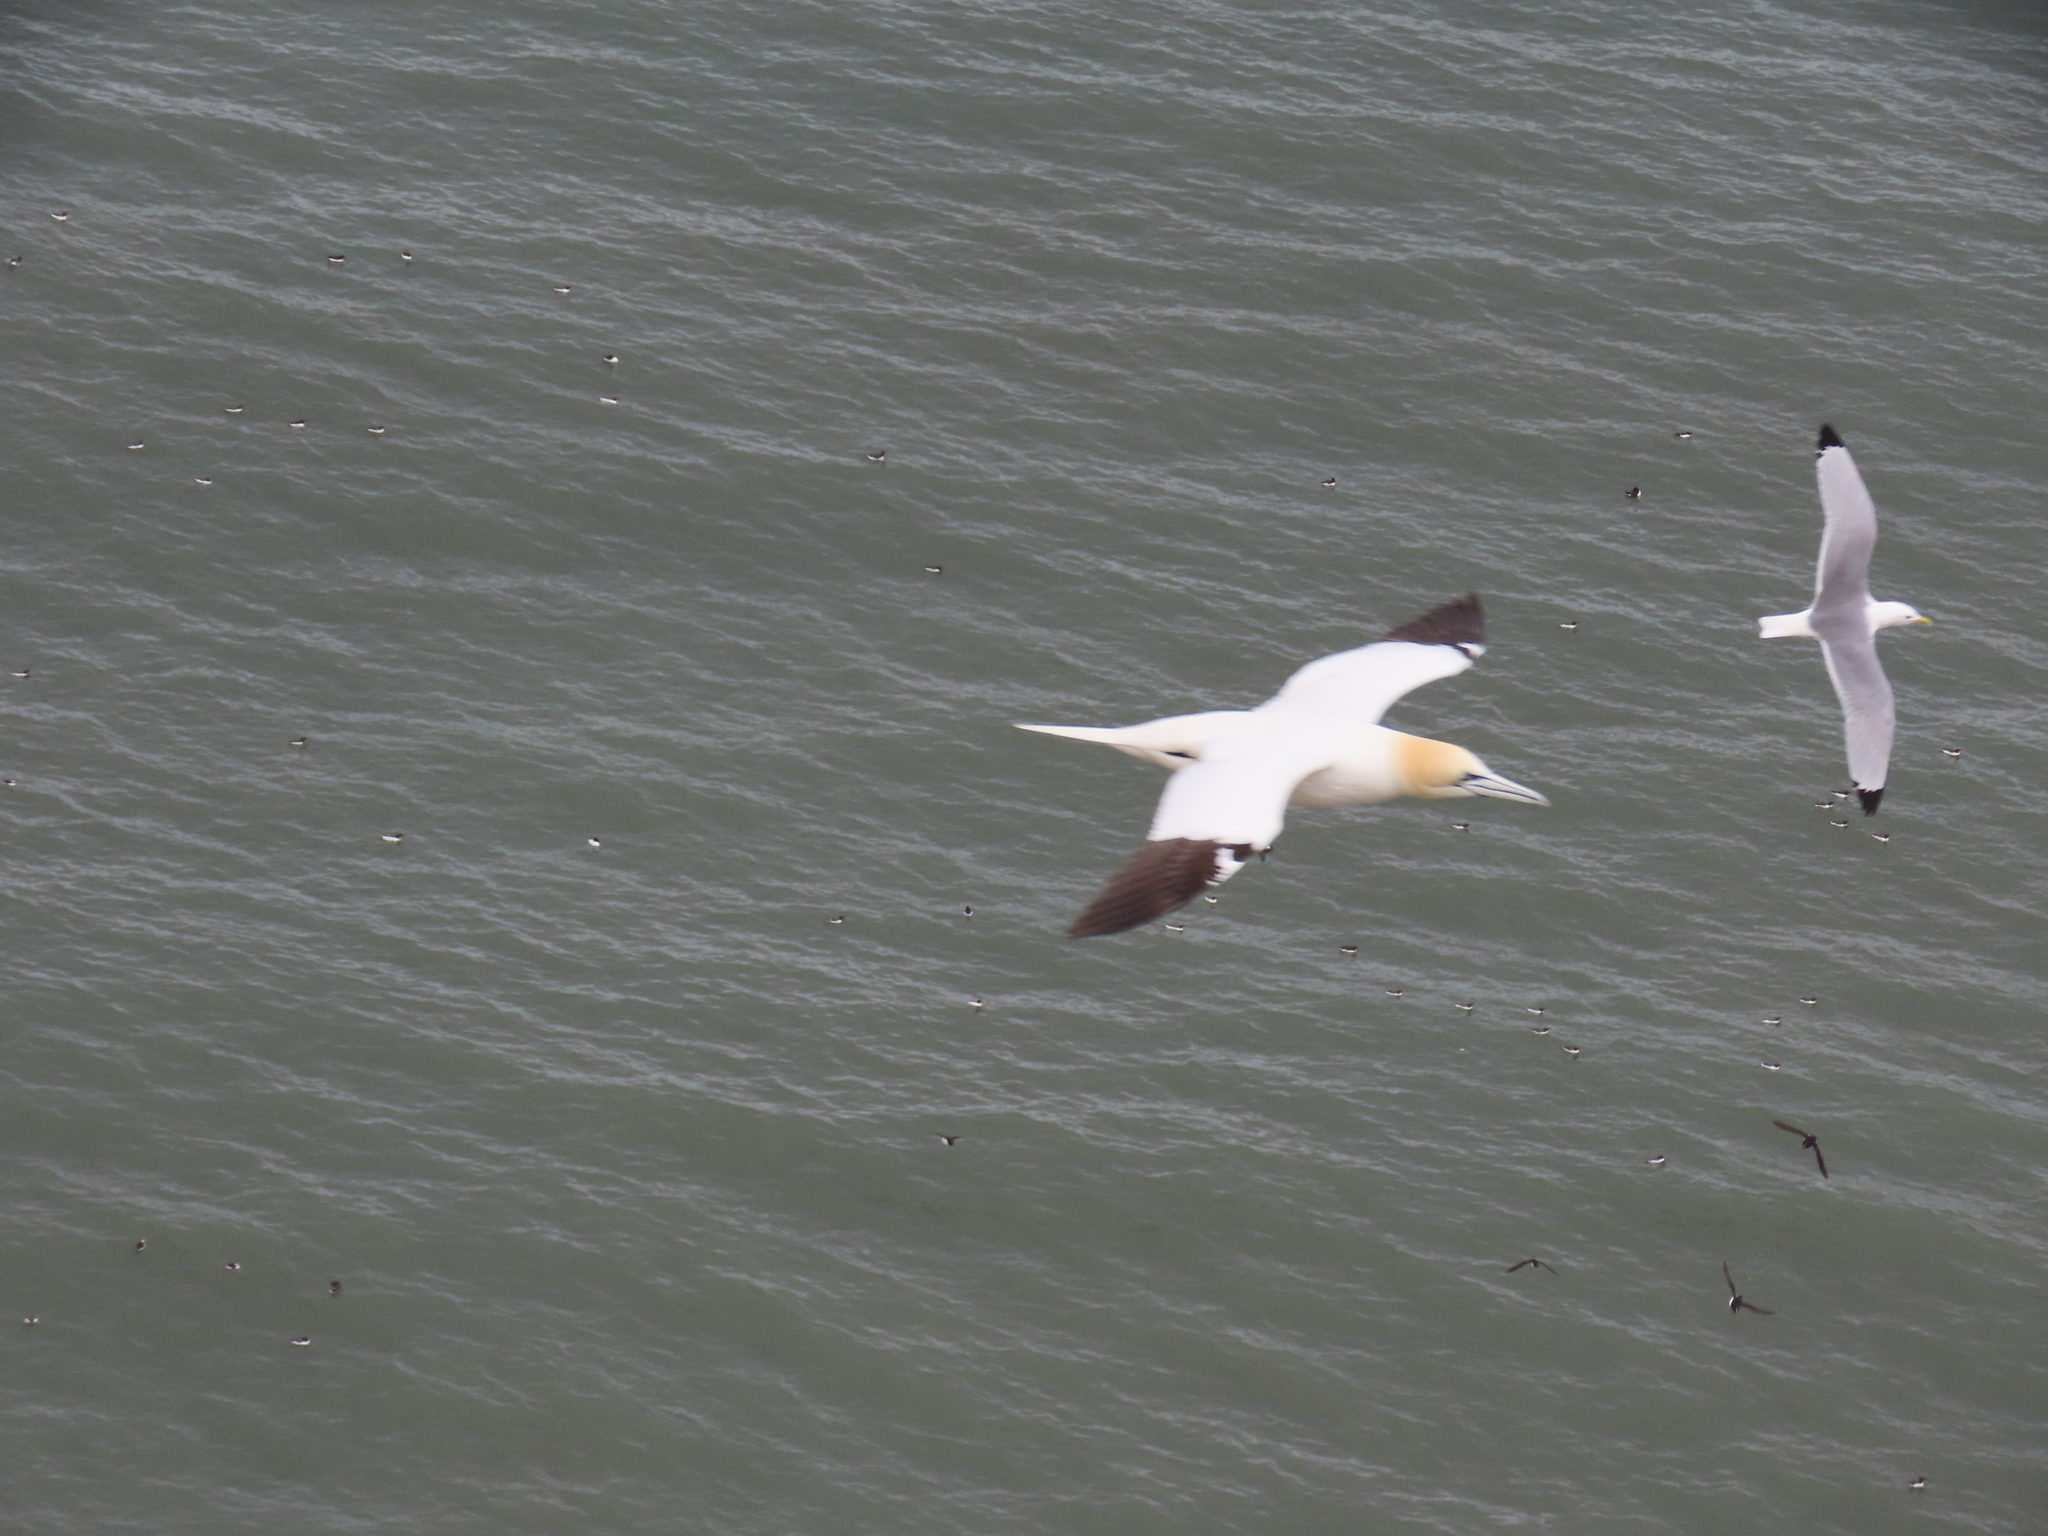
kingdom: Animalia
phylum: Chordata
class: Aves
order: Suliformes
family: Sulidae
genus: Morus
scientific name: Morus bassanus
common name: Northern gannet
